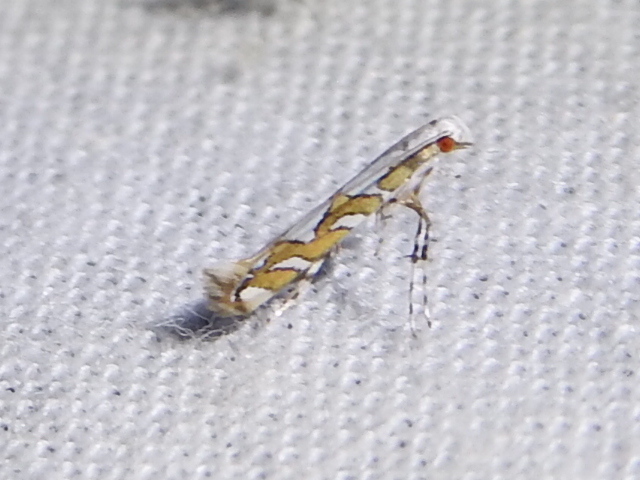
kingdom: Animalia
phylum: Arthropoda
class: Insecta
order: Lepidoptera
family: Gracillariidae
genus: Acrocercops
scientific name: Acrocercops albinatella
